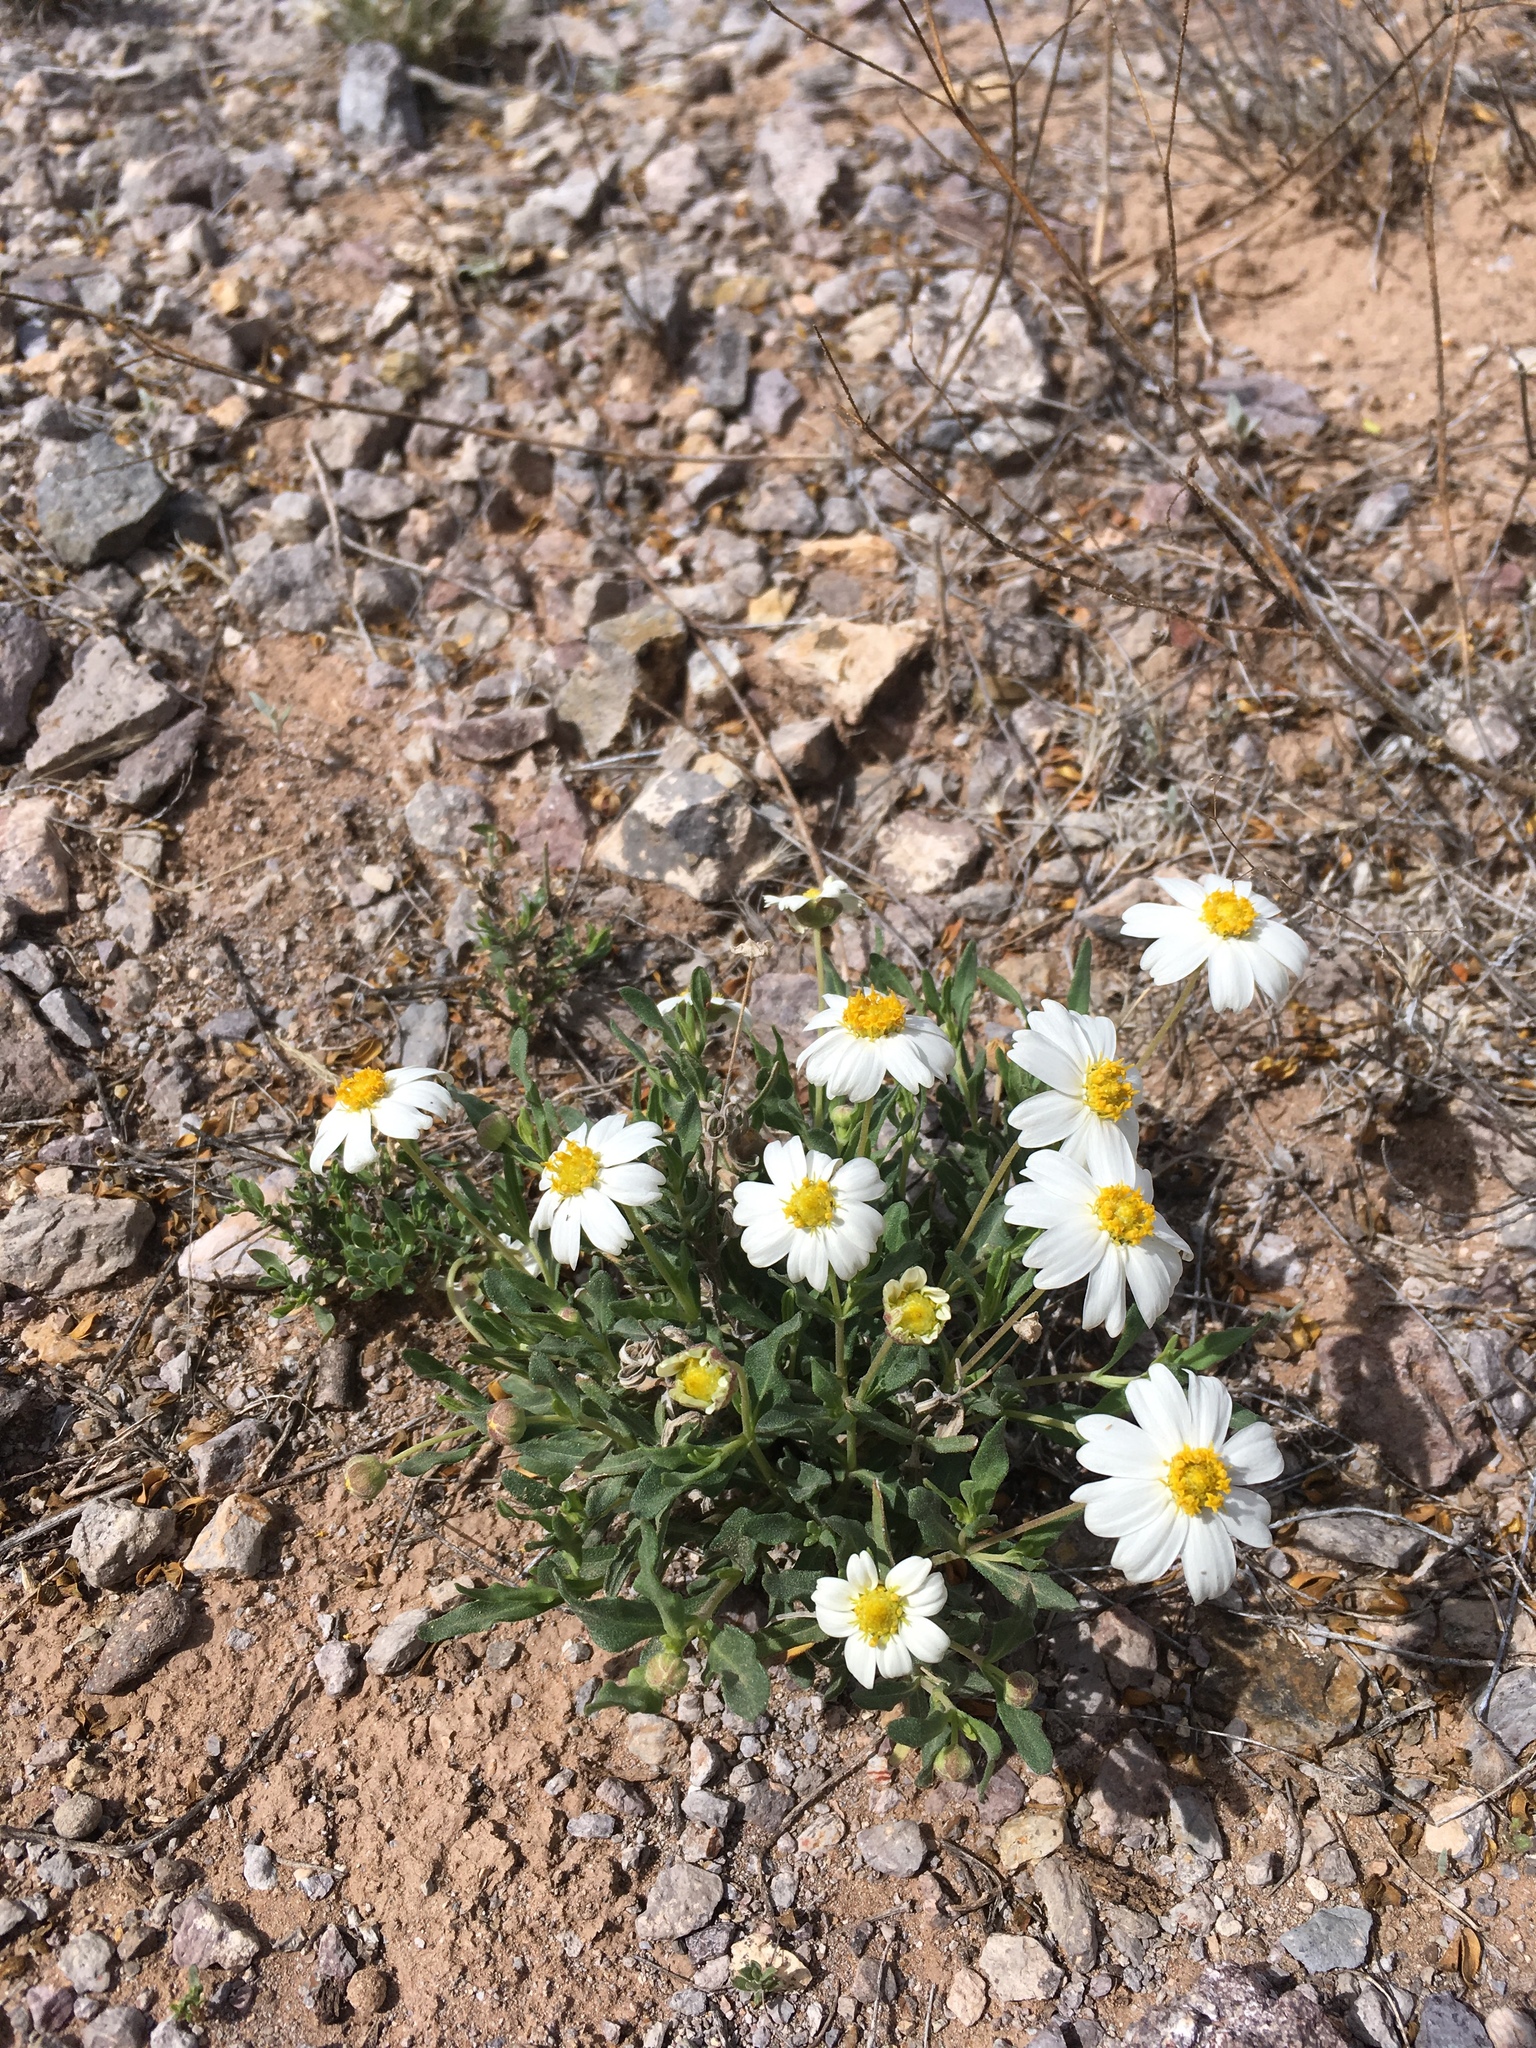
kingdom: Plantae
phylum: Tracheophyta
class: Magnoliopsida
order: Asterales
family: Asteraceae
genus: Melampodium
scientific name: Melampodium leucanthum
